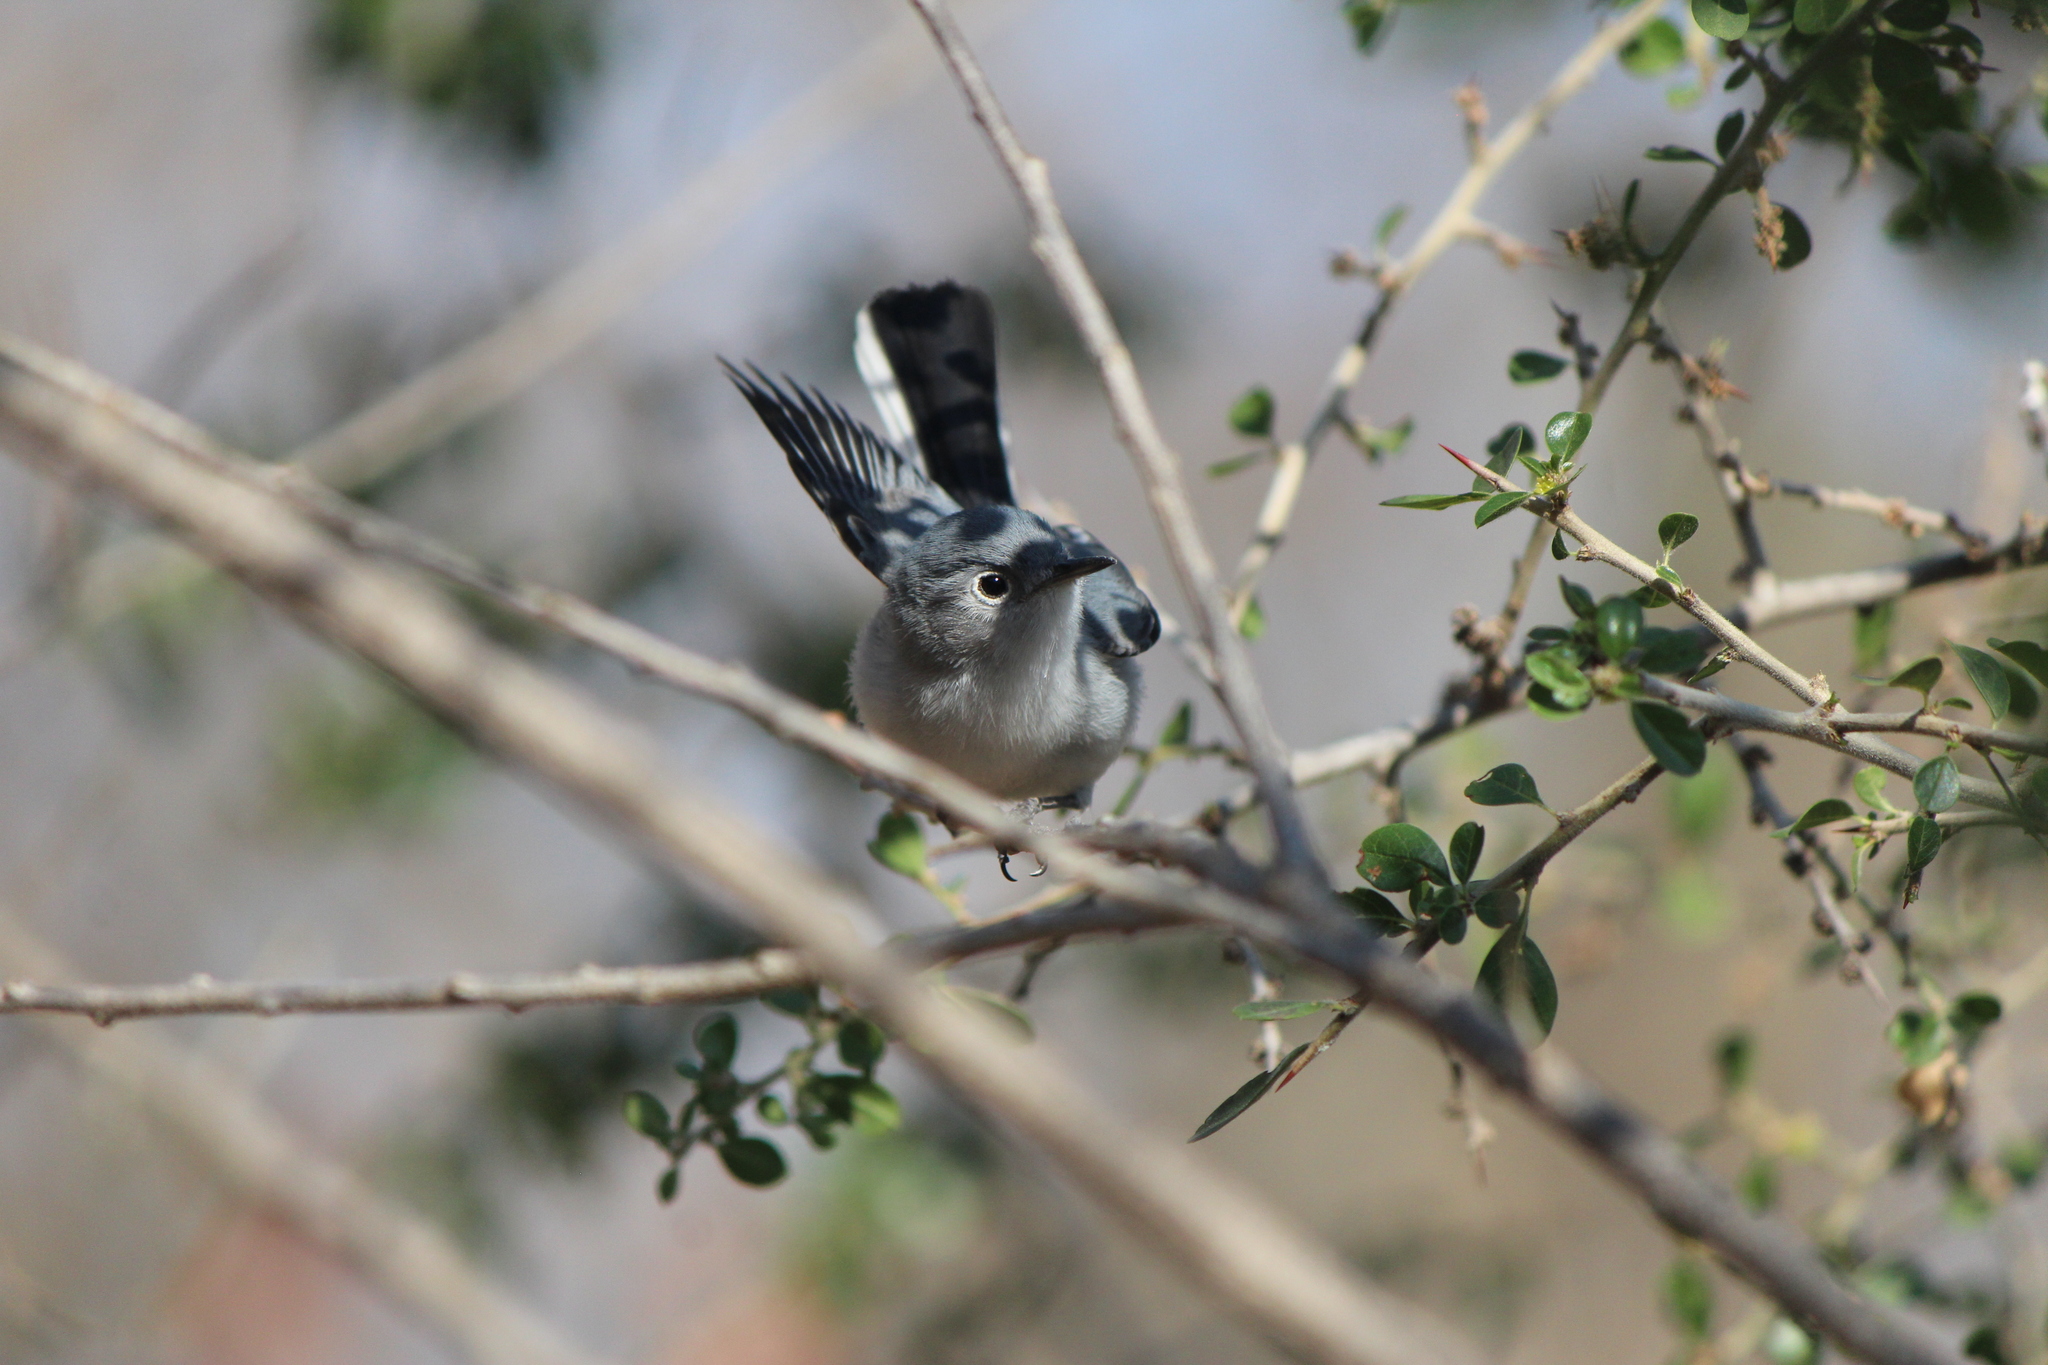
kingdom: Animalia
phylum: Chordata
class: Aves
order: Passeriformes
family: Polioptilidae
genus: Polioptila
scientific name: Polioptila caerulea
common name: Blue-gray gnatcatcher
